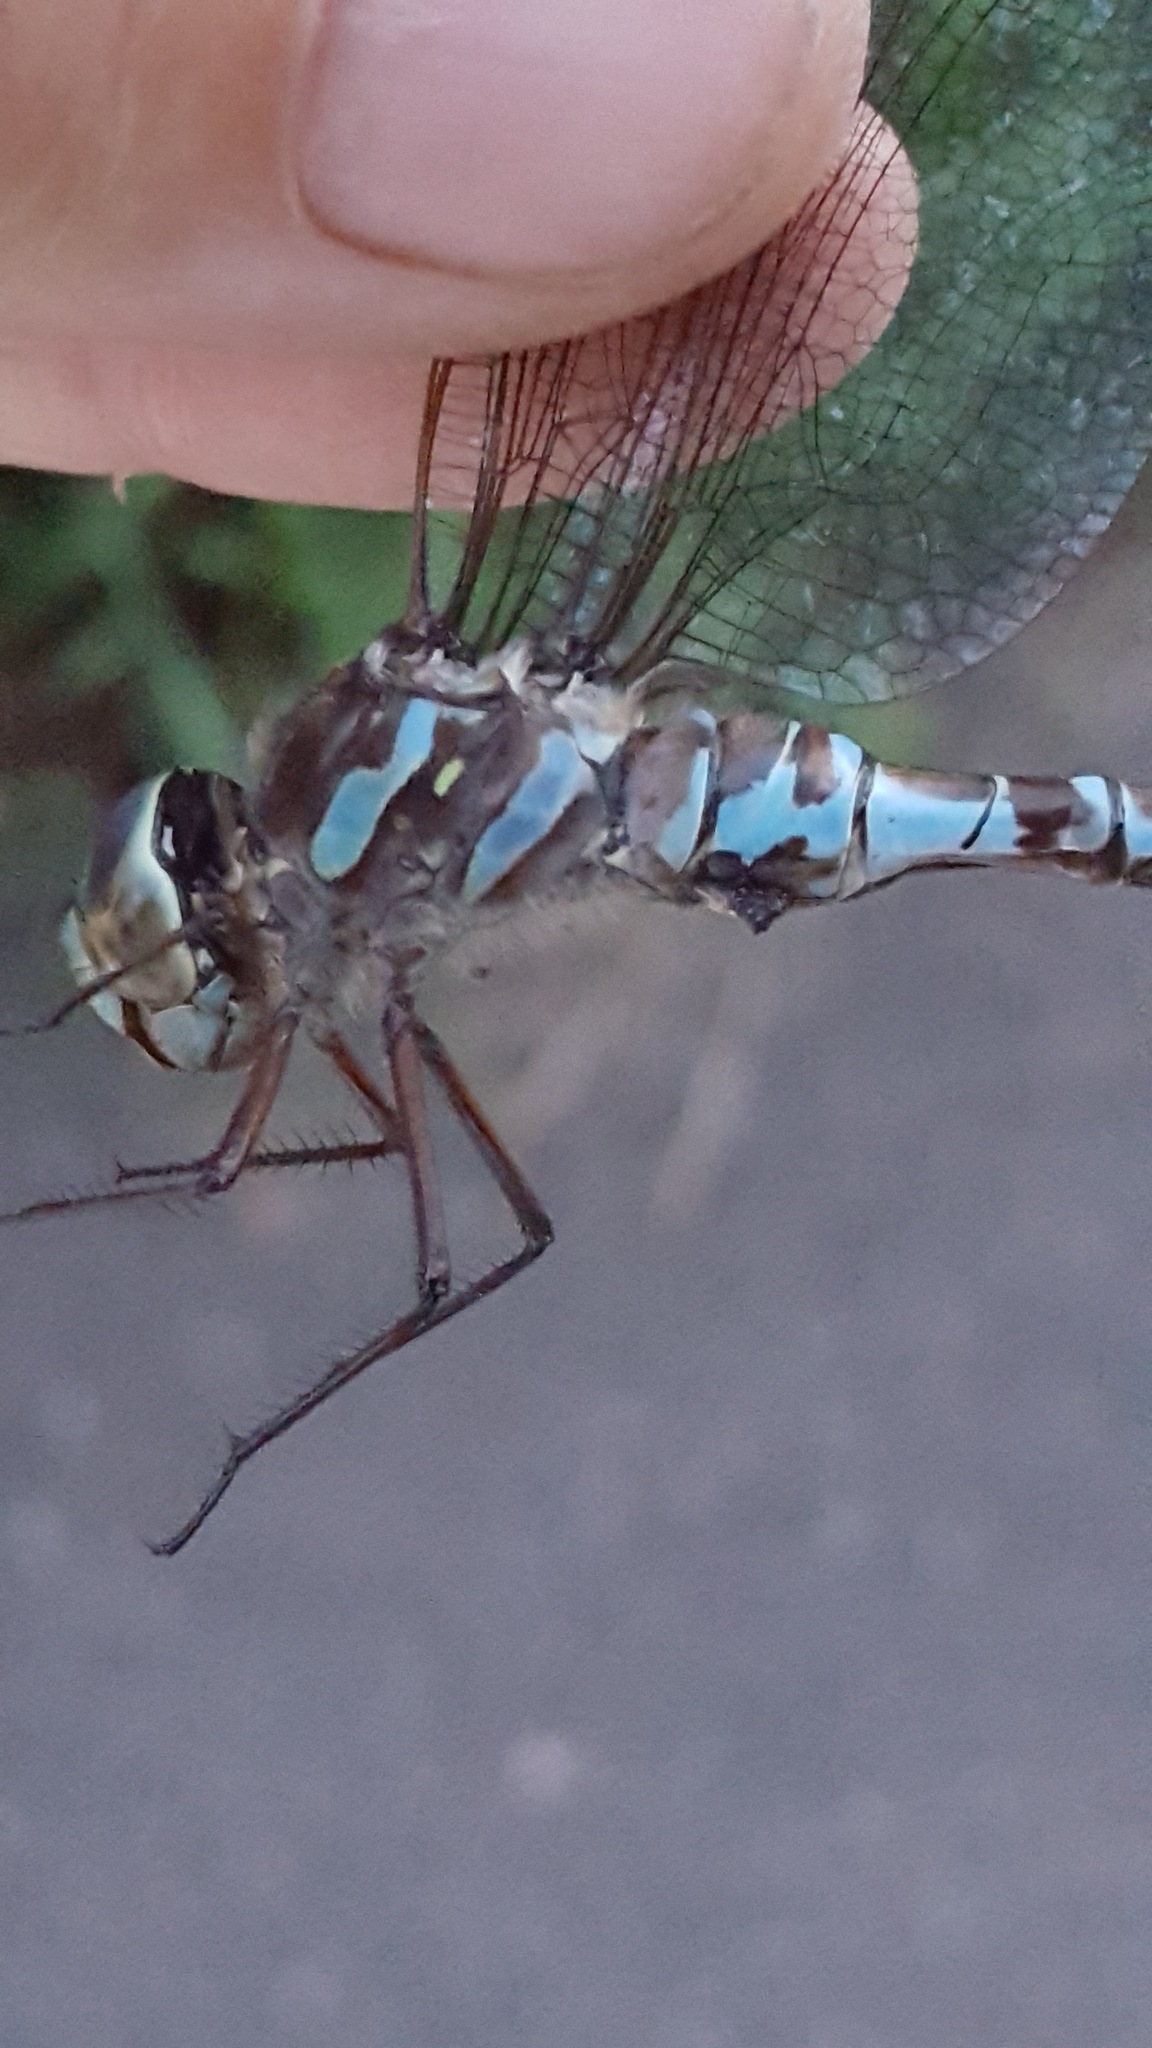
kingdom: Animalia
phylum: Arthropoda
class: Insecta
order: Odonata
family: Aeshnidae
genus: Aeshna
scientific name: Aeshna canadensis
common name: Canada darner
